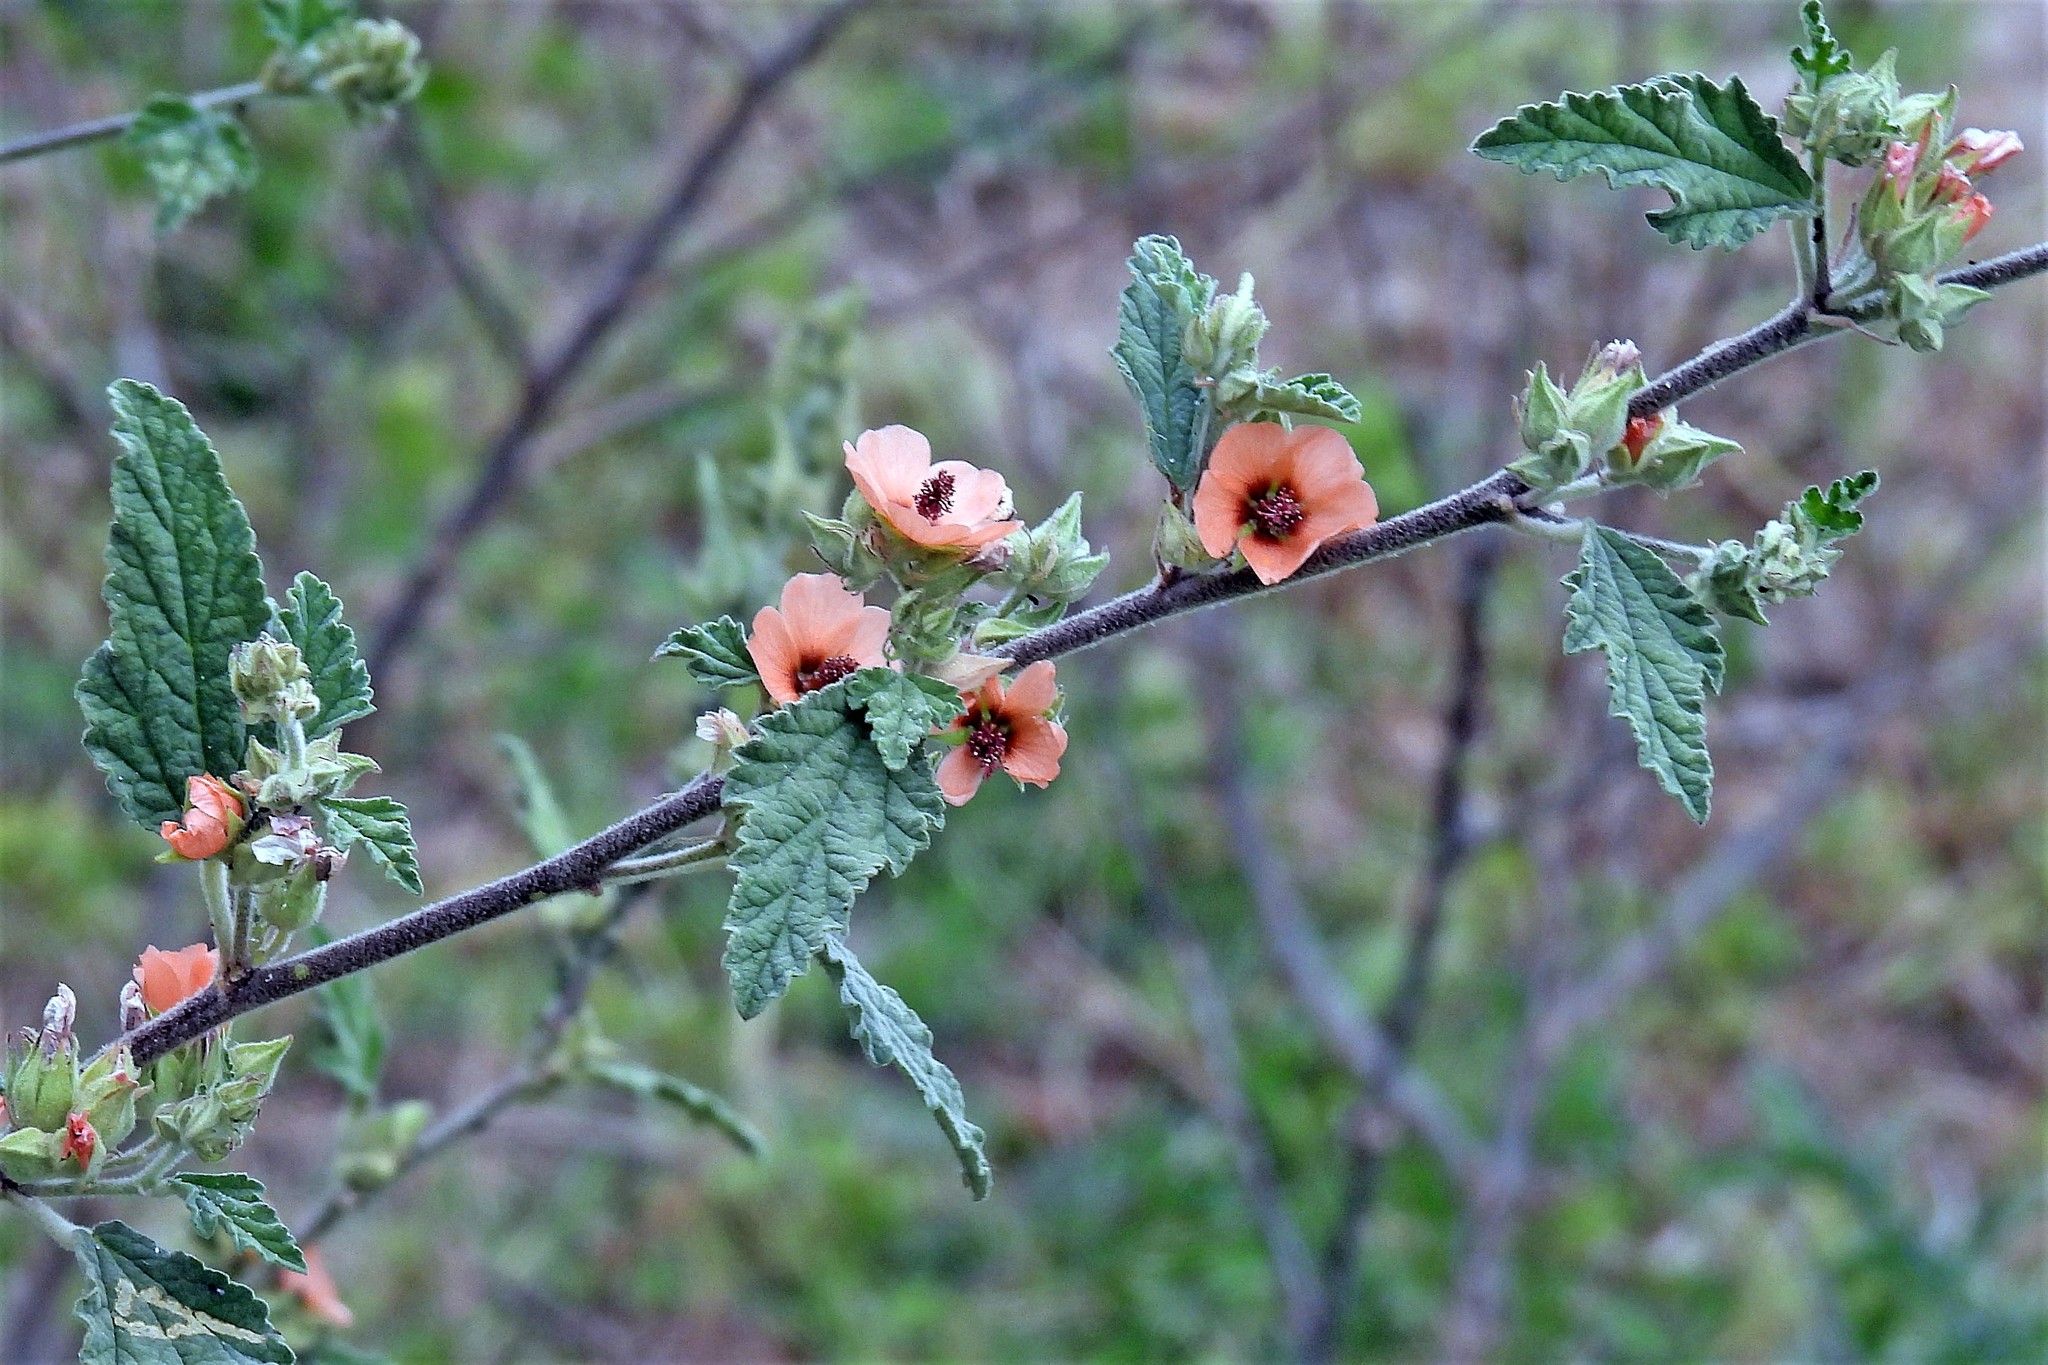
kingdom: Plantae
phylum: Tracheophyta
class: Magnoliopsida
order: Malvales
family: Malvaceae
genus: Sphaeralcea
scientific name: Sphaeralcea bonariensis
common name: Latin globemallow
